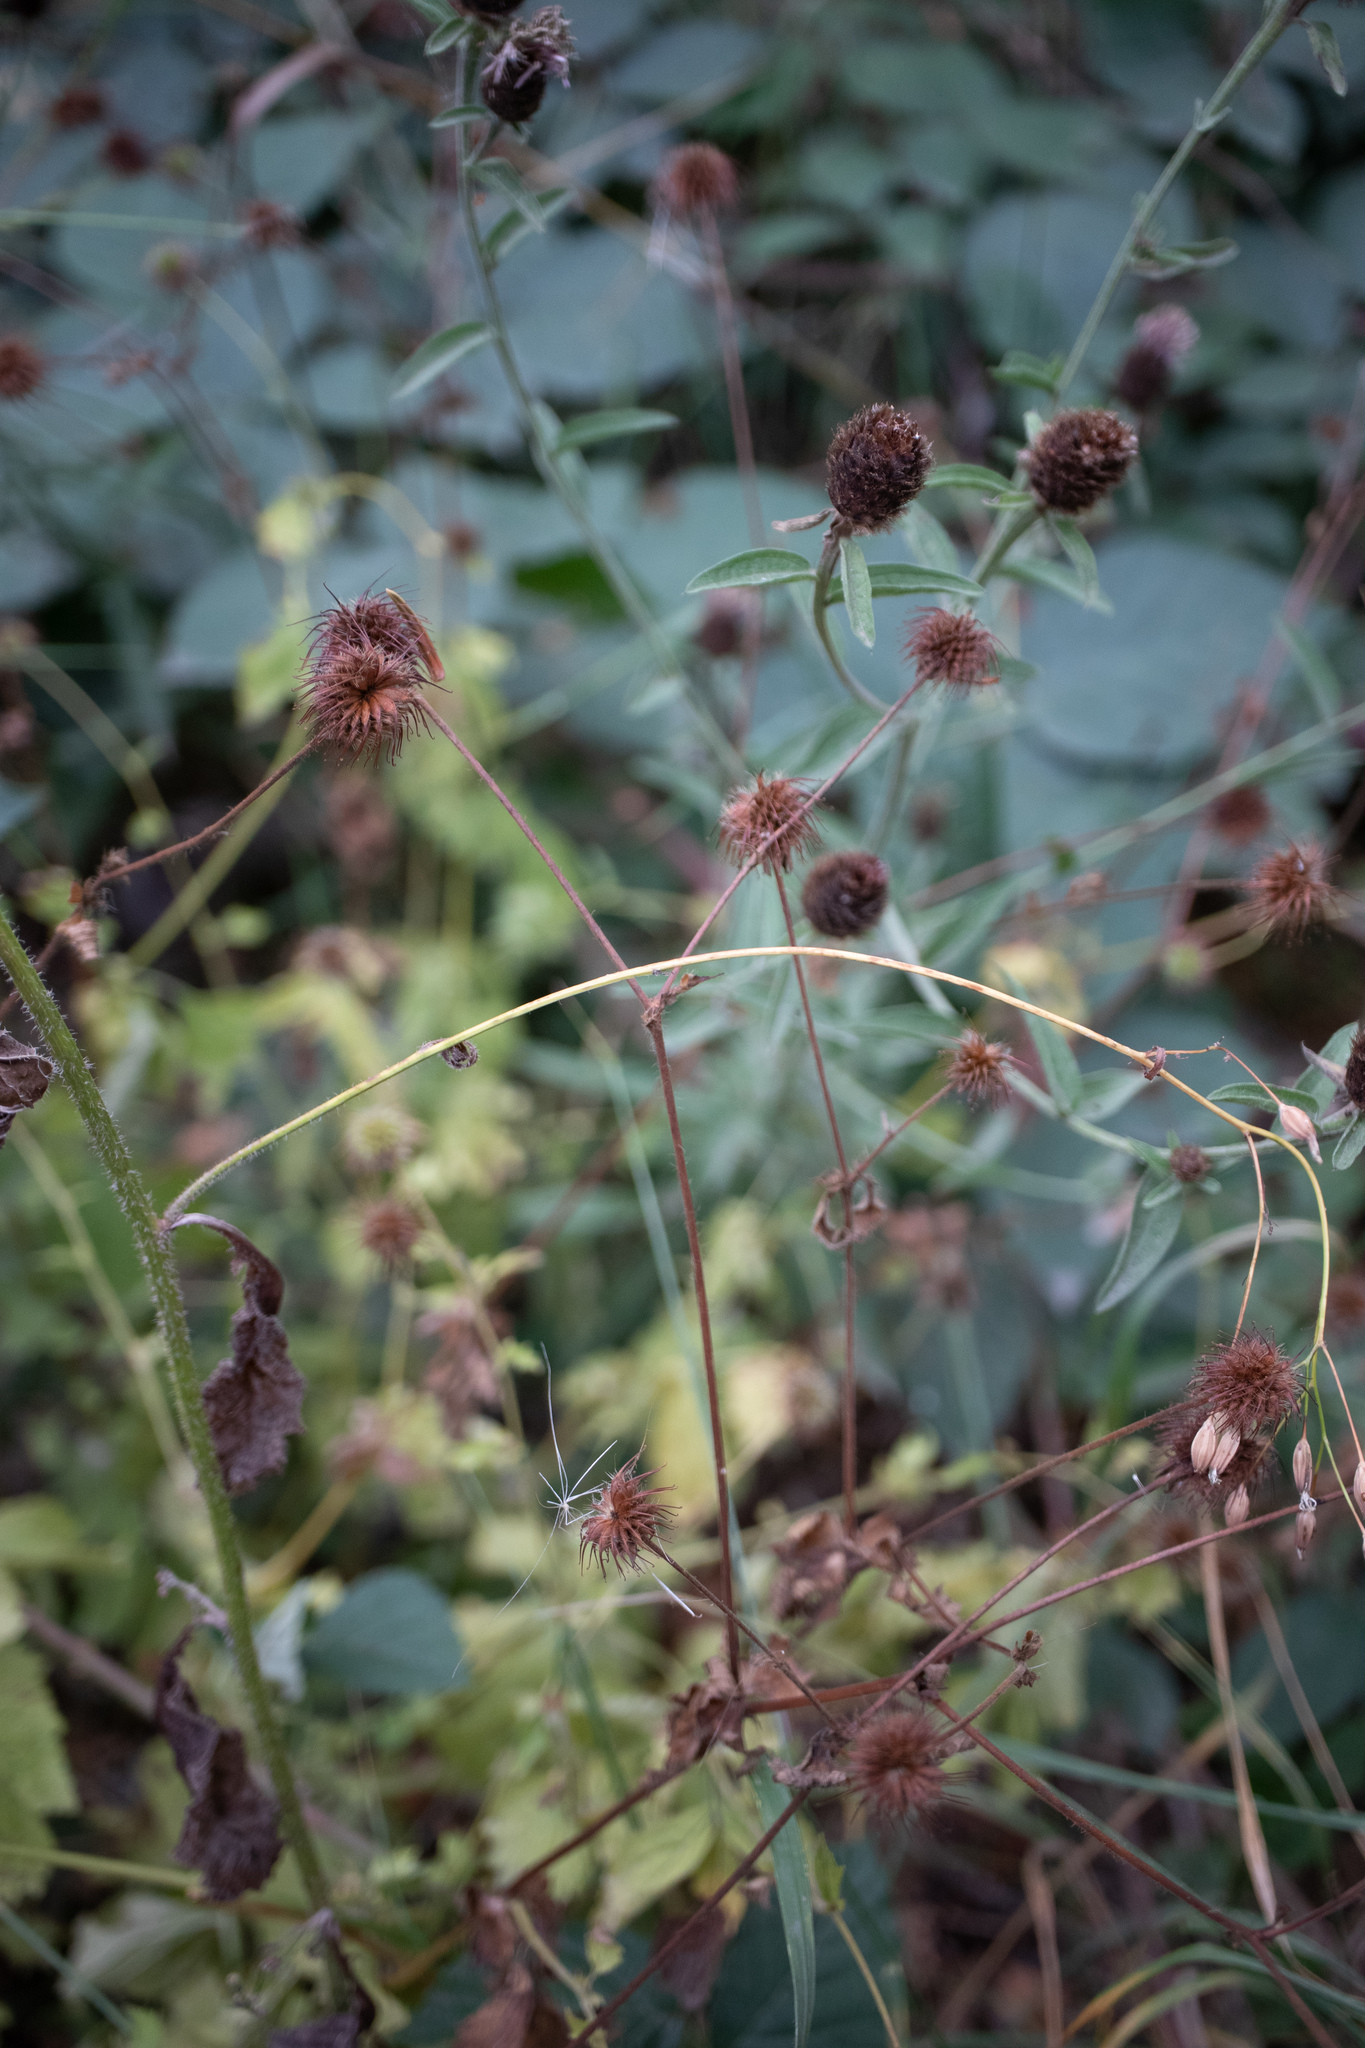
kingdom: Plantae
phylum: Tracheophyta
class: Magnoliopsida
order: Rosales
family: Rosaceae
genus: Geum
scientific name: Geum urbanum
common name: Wood avens
